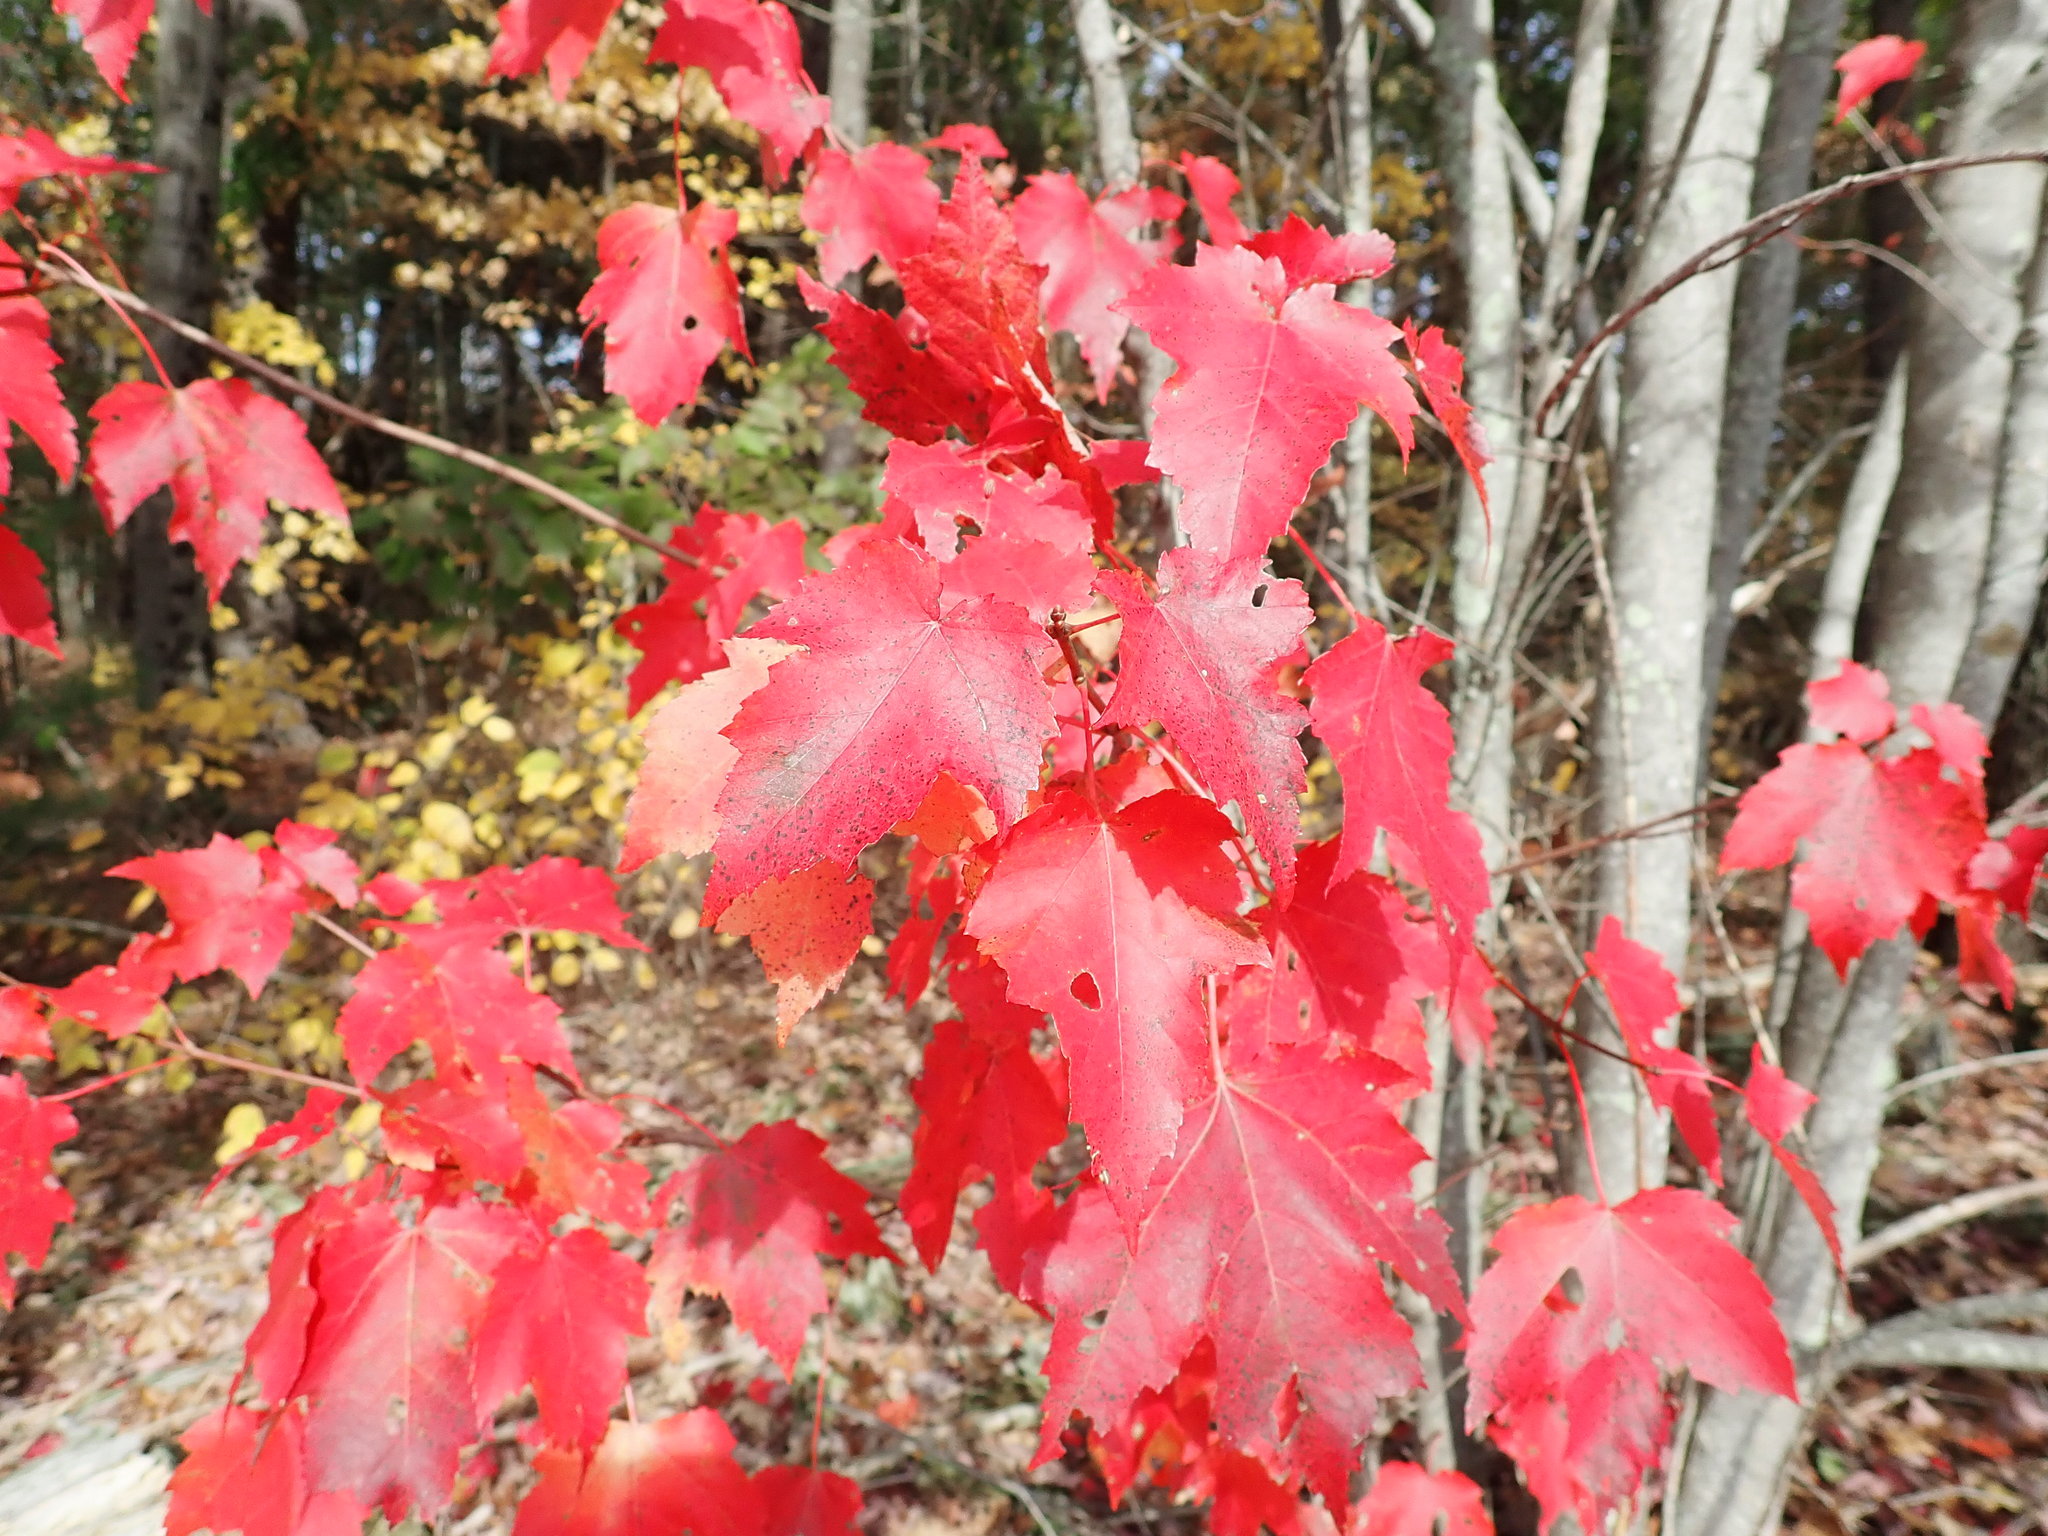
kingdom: Plantae
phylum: Tracheophyta
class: Magnoliopsida
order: Sapindales
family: Sapindaceae
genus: Acer
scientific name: Acer rubrum
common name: Red maple
